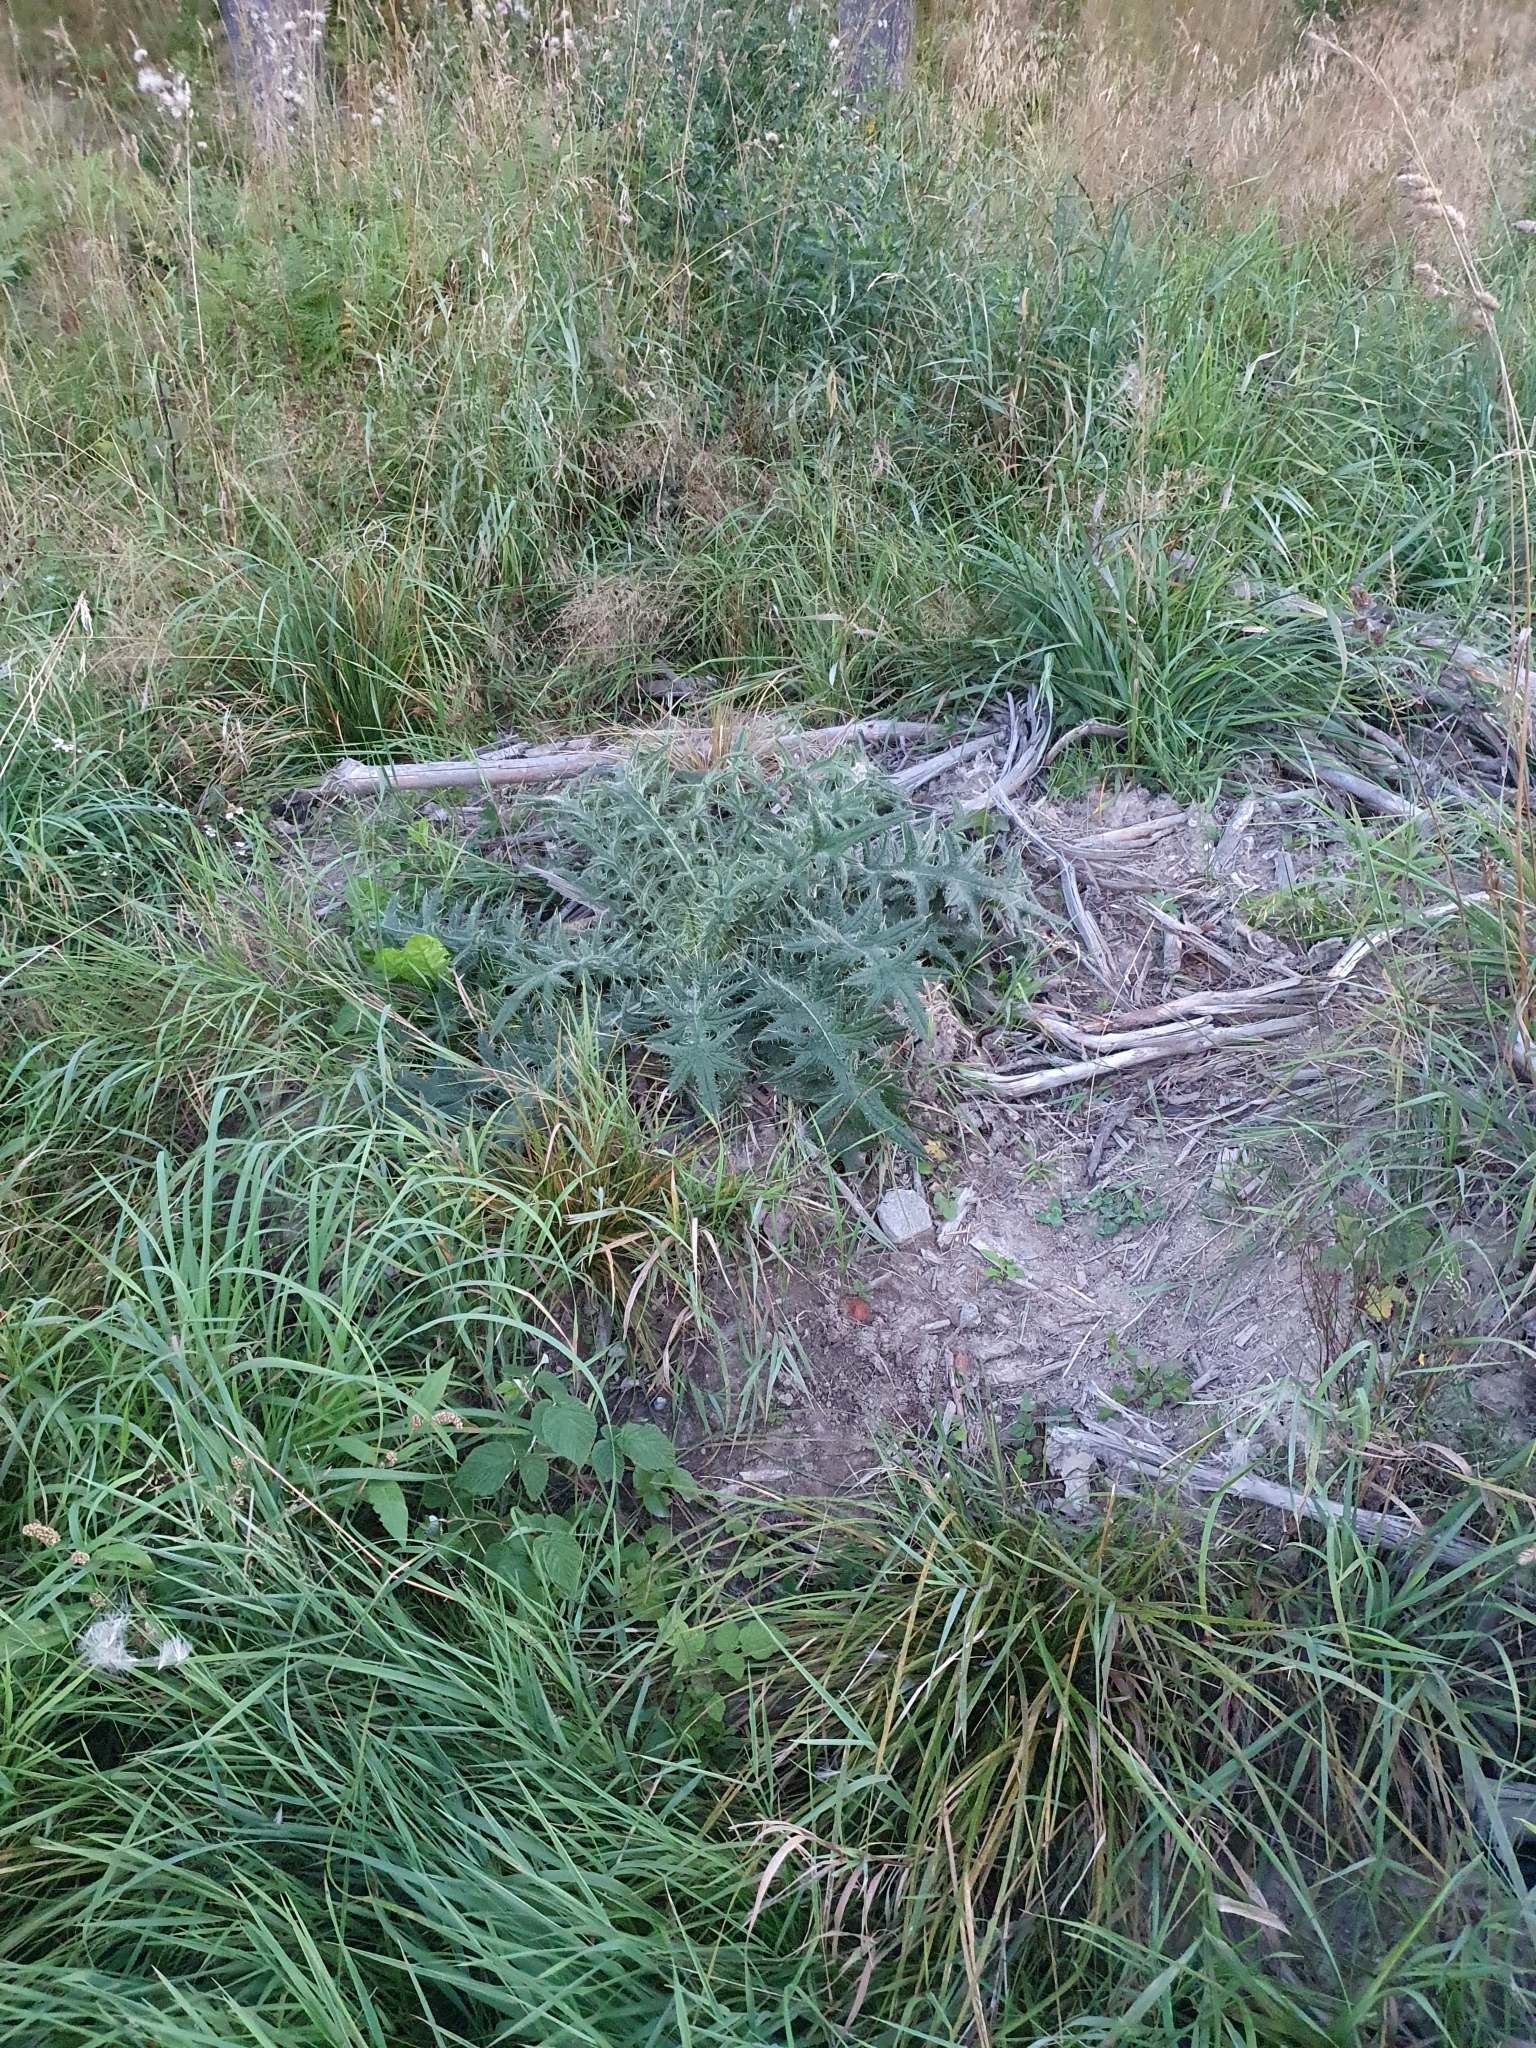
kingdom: Plantae
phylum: Tracheophyta
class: Magnoliopsida
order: Asterales
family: Asteraceae
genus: Cirsium
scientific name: Cirsium vulgare
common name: Bull thistle
